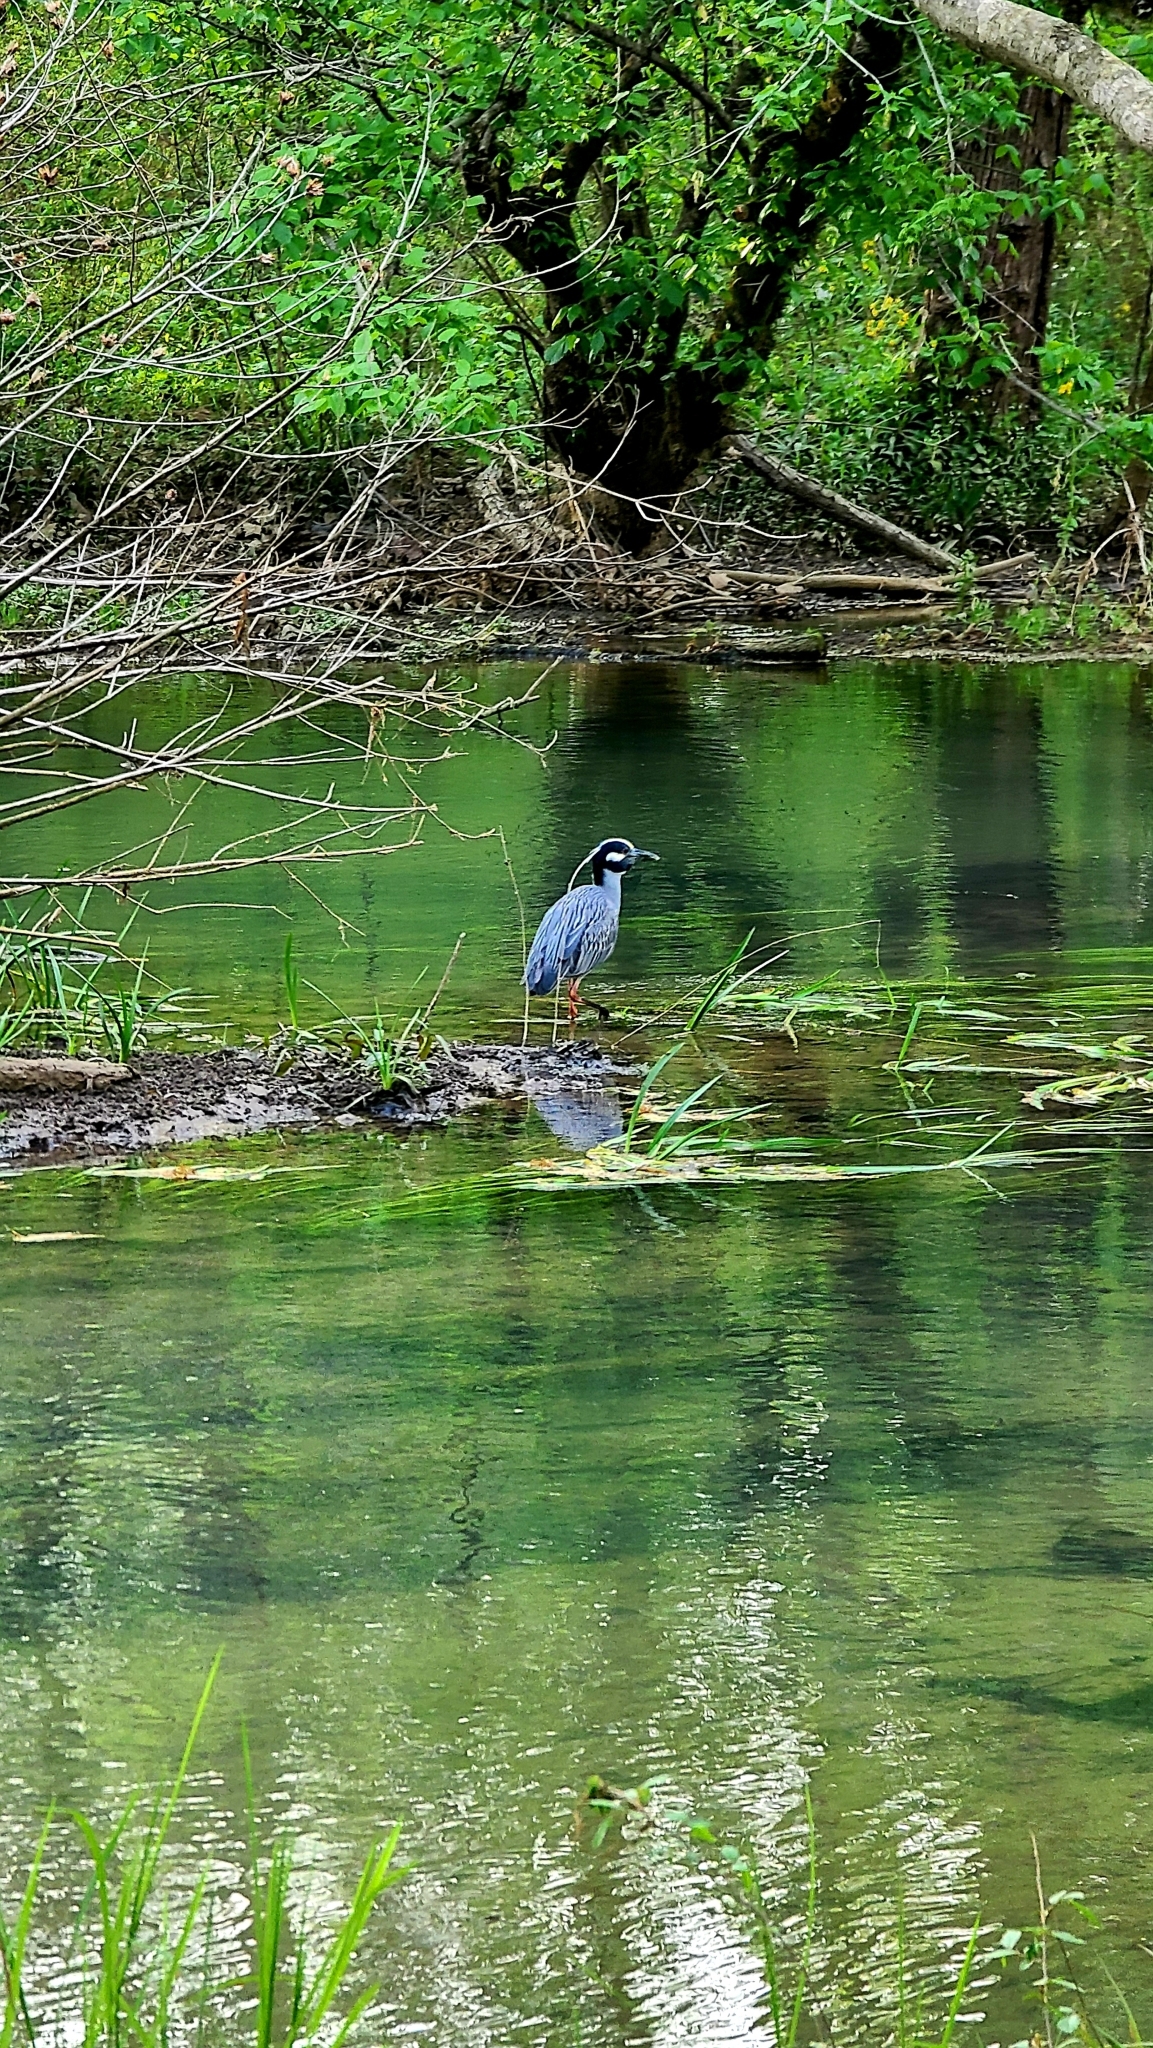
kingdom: Animalia
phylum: Chordata
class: Aves
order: Pelecaniformes
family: Ardeidae
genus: Nyctanassa
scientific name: Nyctanassa violacea
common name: Yellow-crowned night heron
